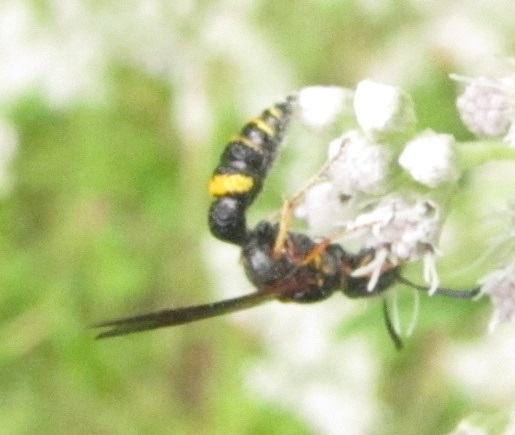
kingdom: Animalia
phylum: Arthropoda
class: Insecta
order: Hymenoptera
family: Crabronidae
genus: Philanthus
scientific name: Philanthus gibbosus
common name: Humped beewolf
